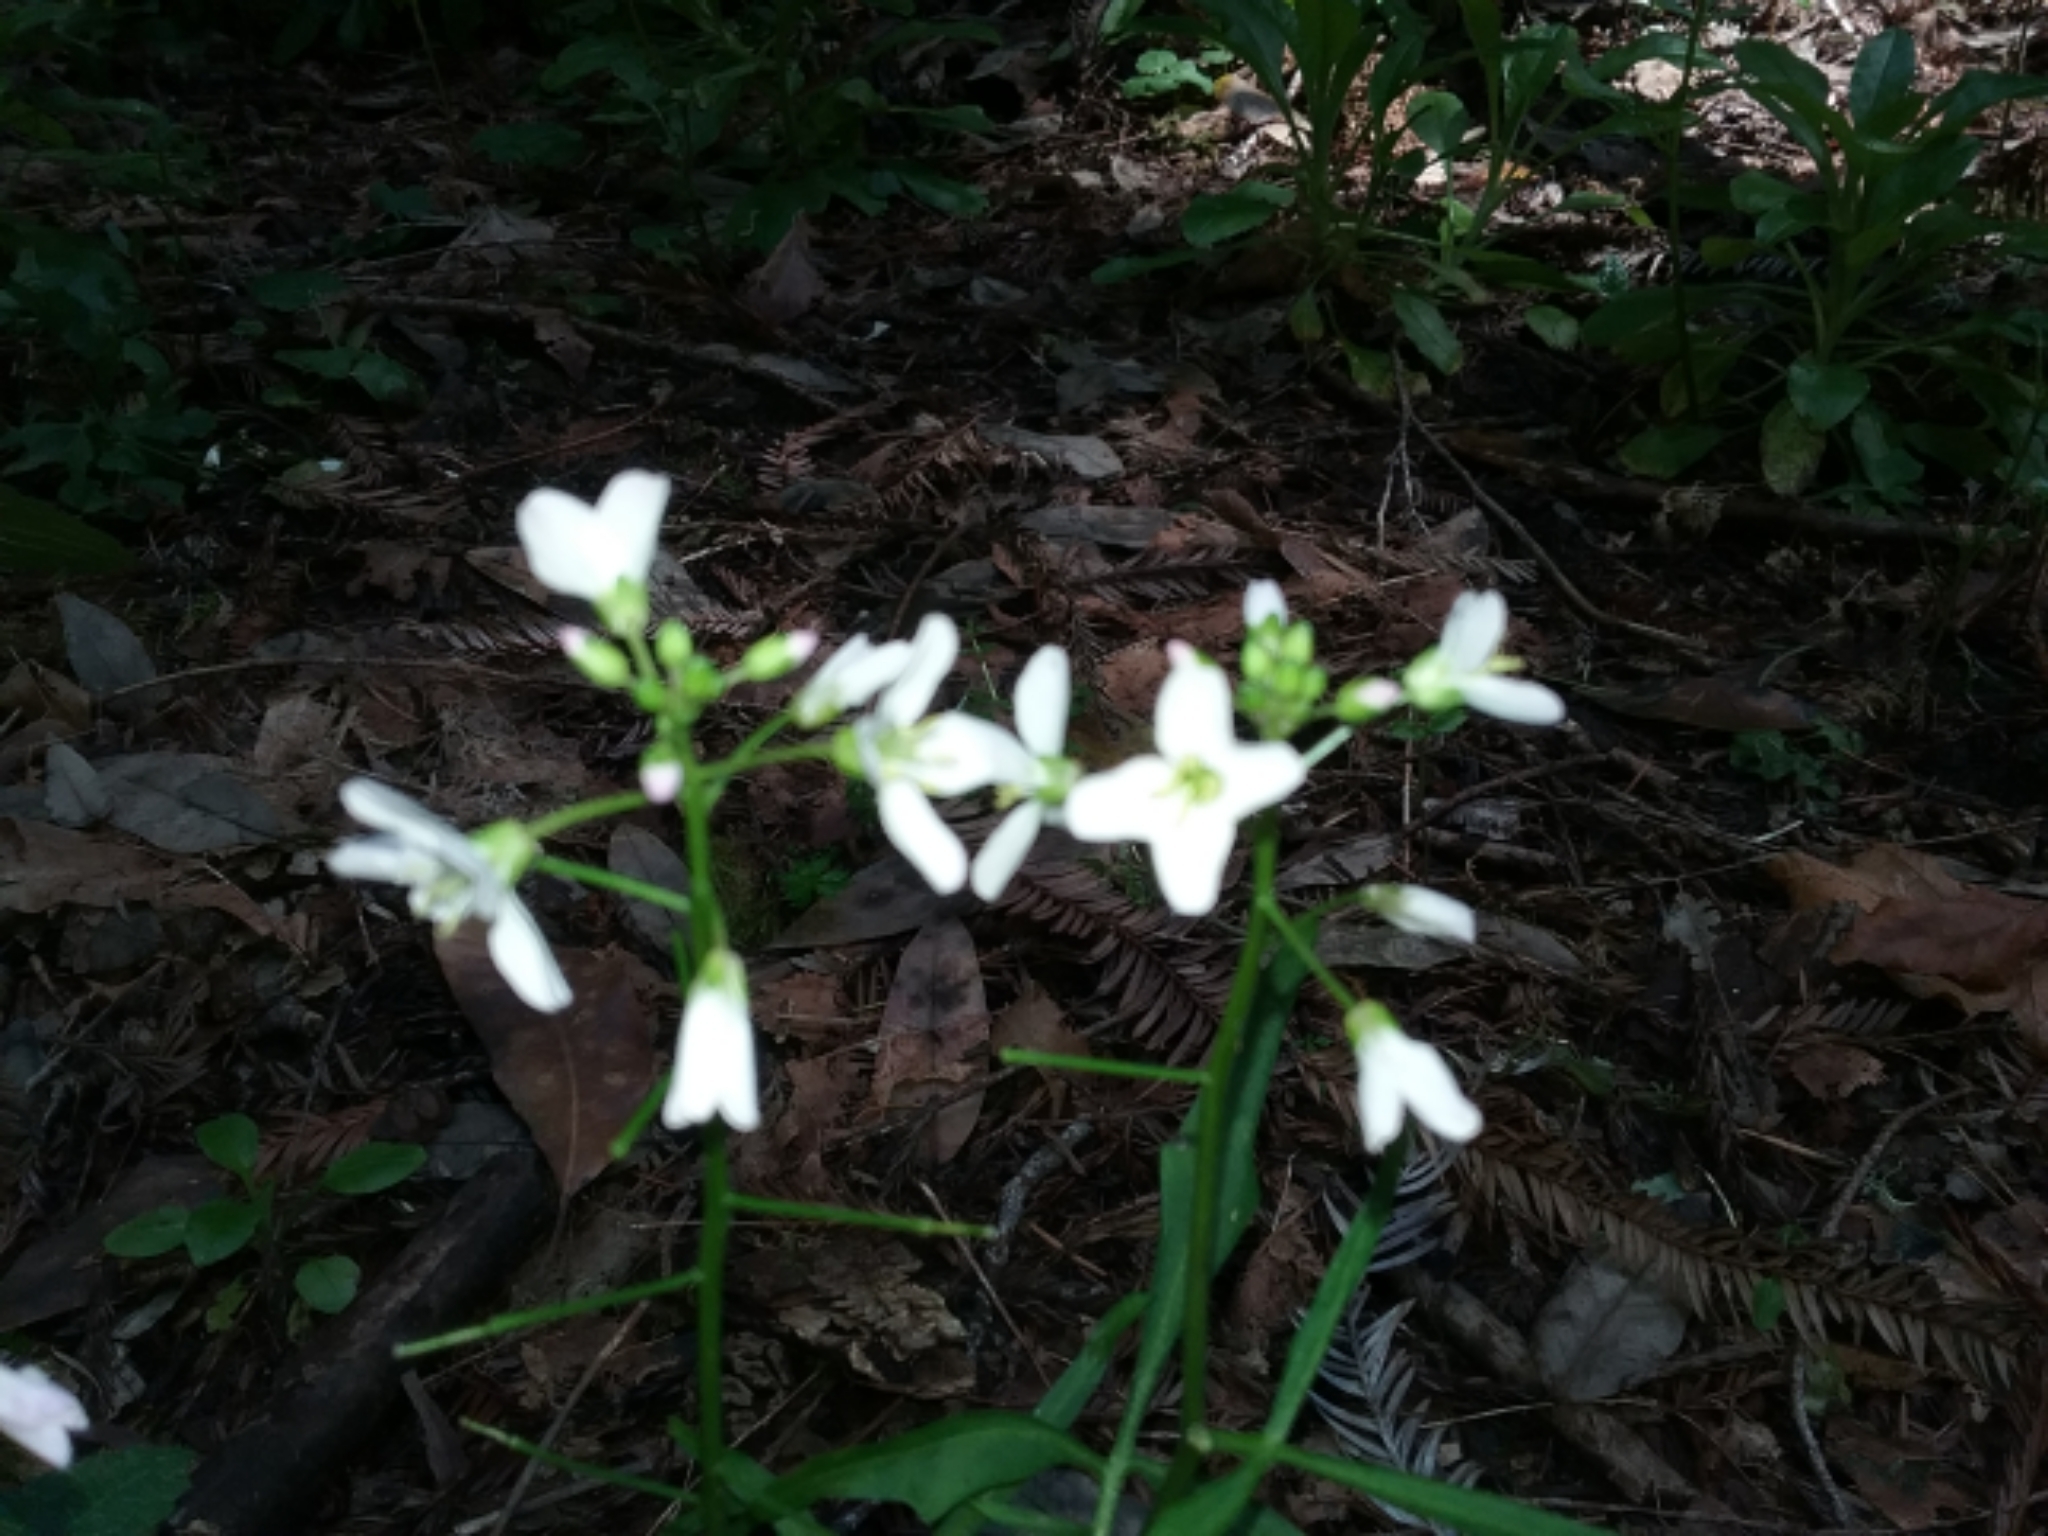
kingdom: Plantae
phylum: Tracheophyta
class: Magnoliopsida
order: Brassicales
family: Brassicaceae
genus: Cardamine
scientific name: Cardamine californica
